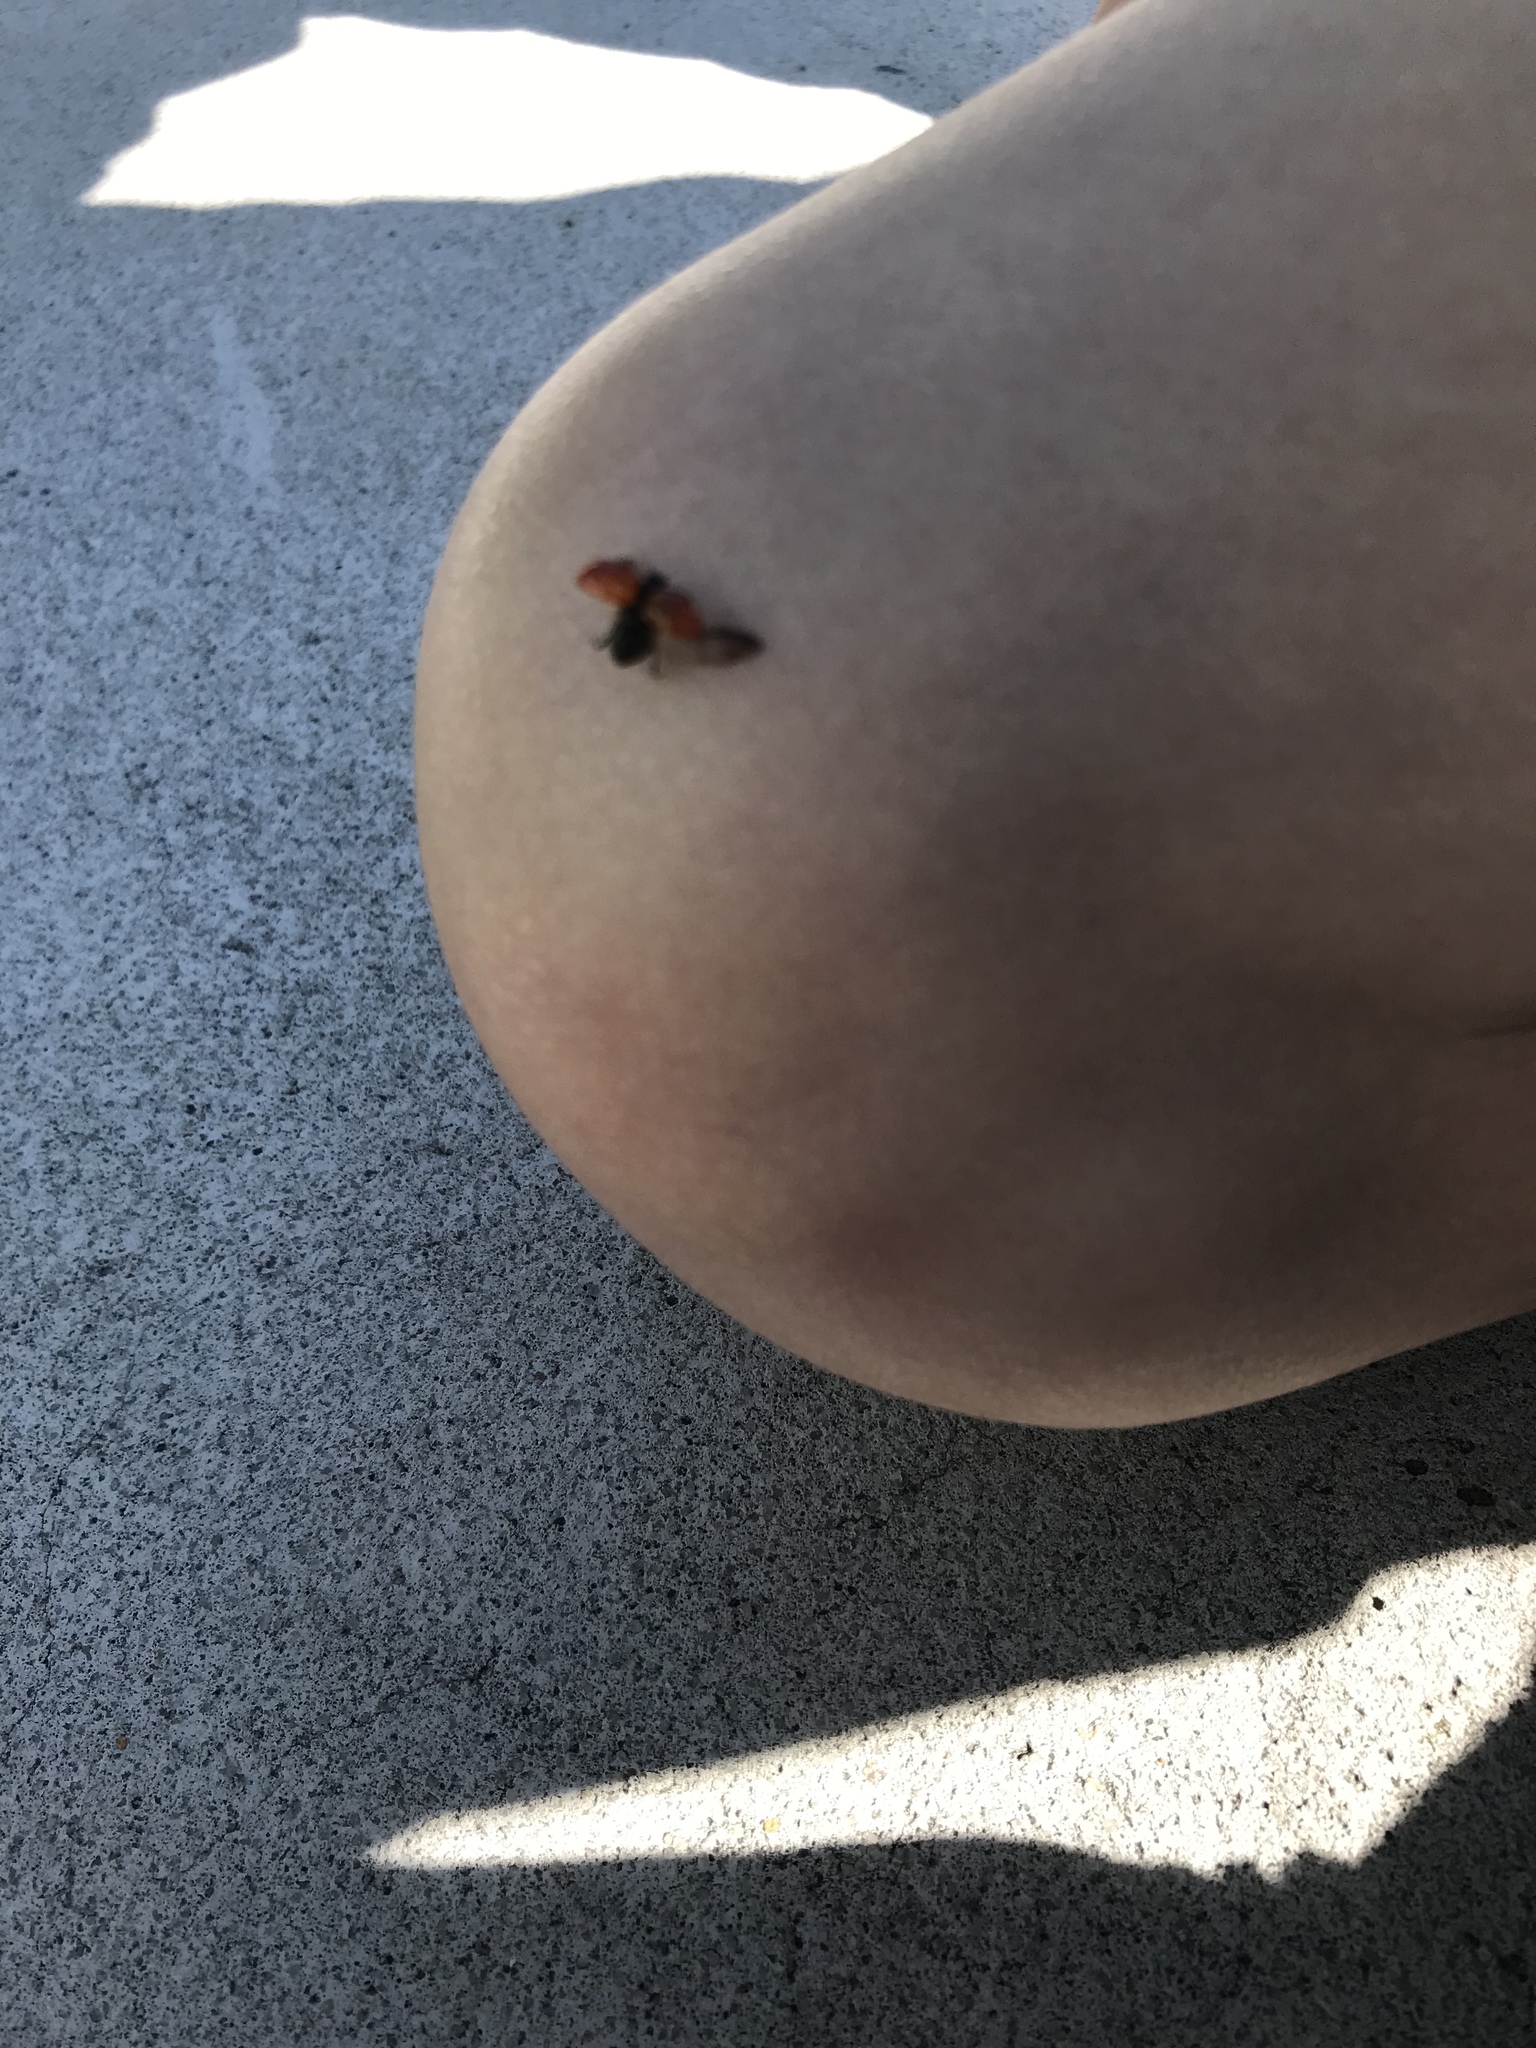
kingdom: Animalia
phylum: Arthropoda
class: Insecta
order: Coleoptera
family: Coccinellidae
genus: Harmonia
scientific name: Harmonia axyridis
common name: Harlequin ladybird
